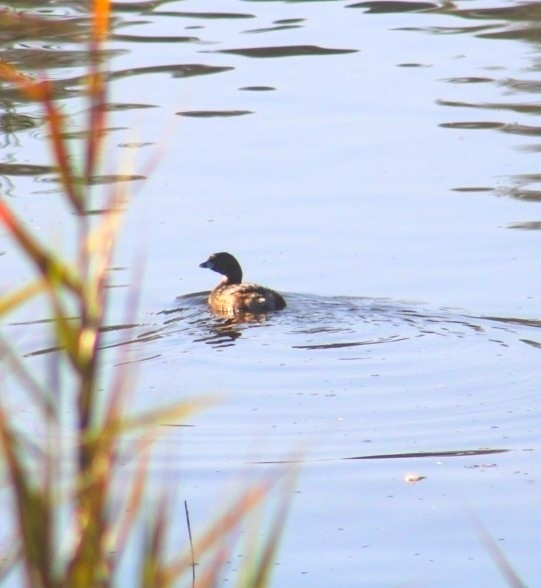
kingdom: Animalia
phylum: Chordata
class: Aves
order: Podicipediformes
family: Podicipedidae
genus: Podilymbus
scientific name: Podilymbus podiceps
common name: Pied-billed grebe
